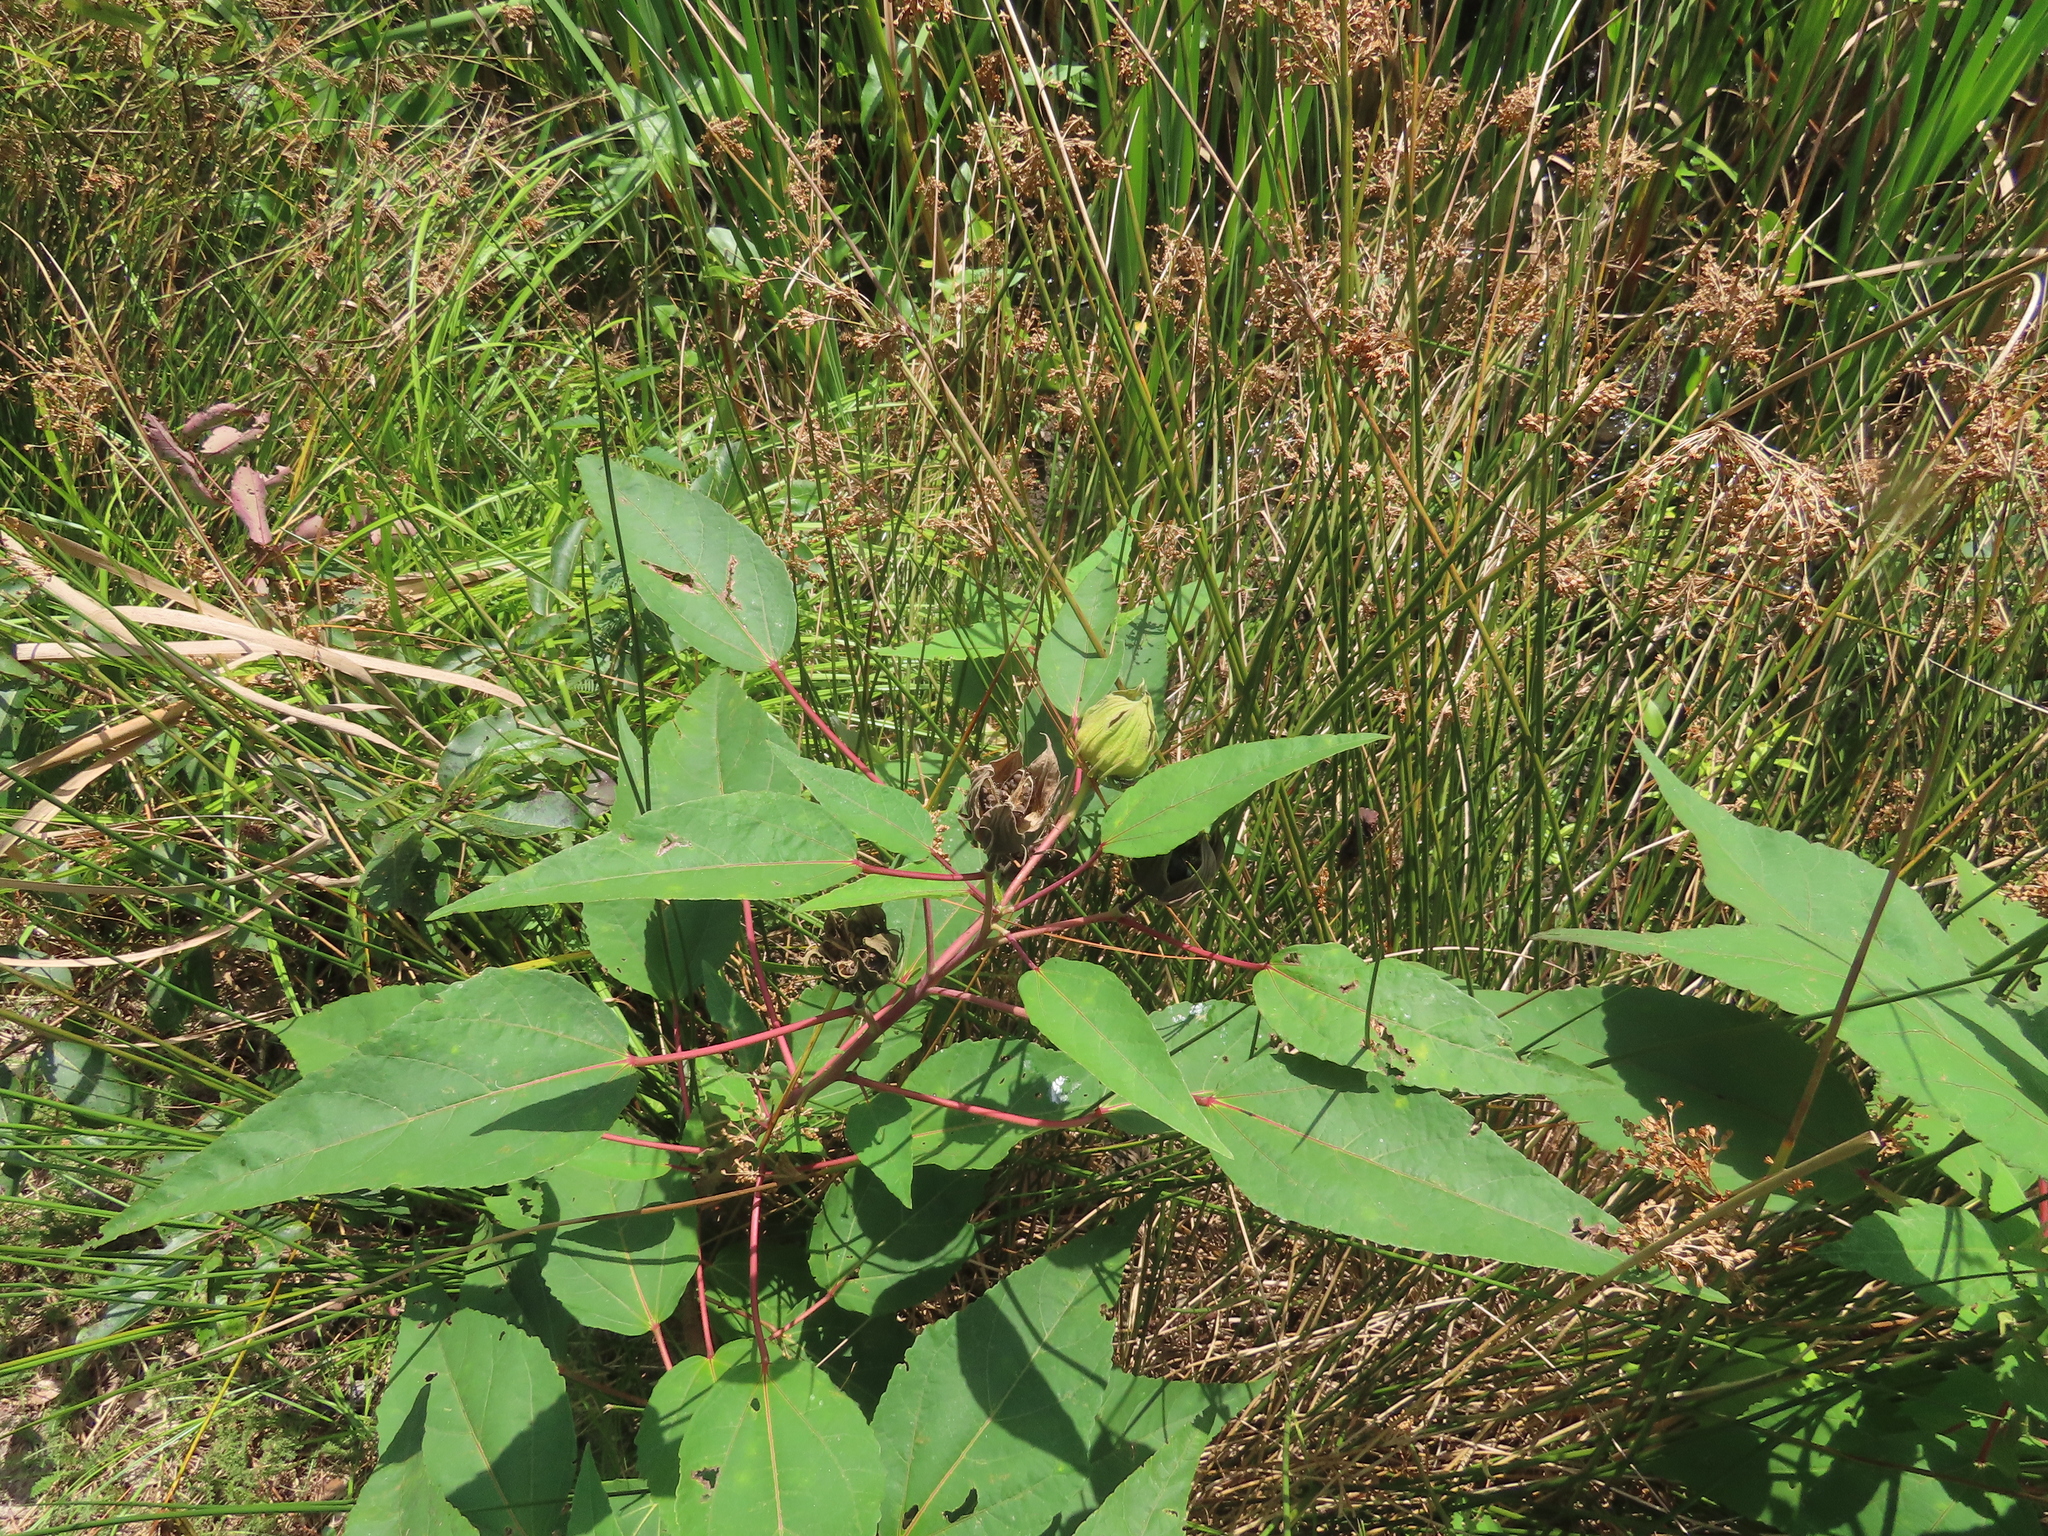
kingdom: Plantae
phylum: Tracheophyta
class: Magnoliopsida
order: Malvales
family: Malvaceae
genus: Hibiscus
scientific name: Hibiscus moscheutos
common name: Common rose-mallow
